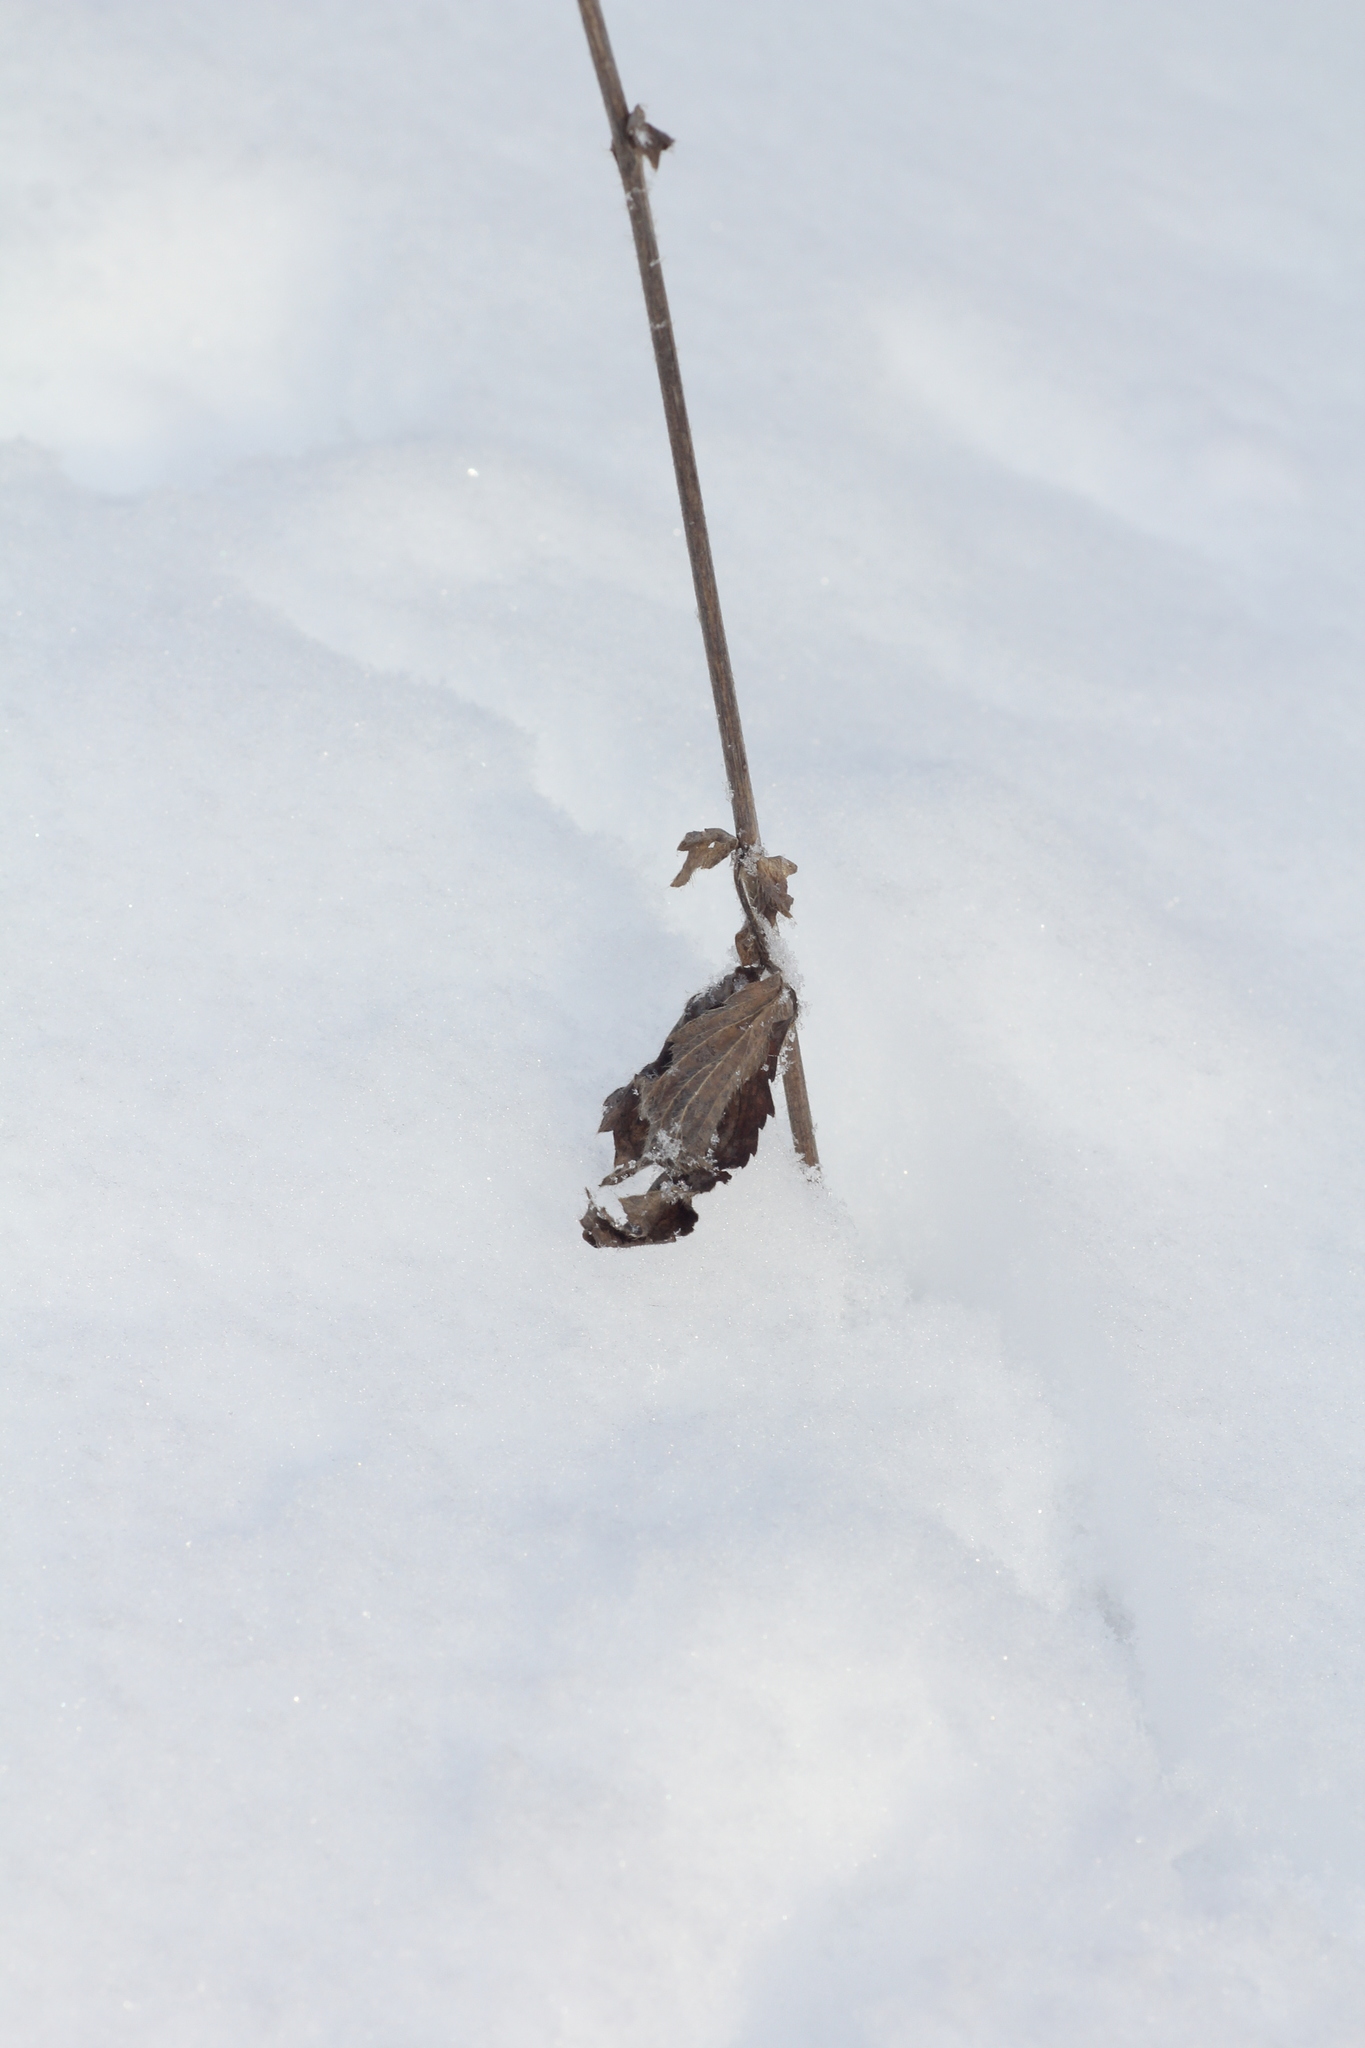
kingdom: Plantae
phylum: Tracheophyta
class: Magnoliopsida
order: Rosales
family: Rosaceae
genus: Geum
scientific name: Geum aleppicum
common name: Yellow avens
